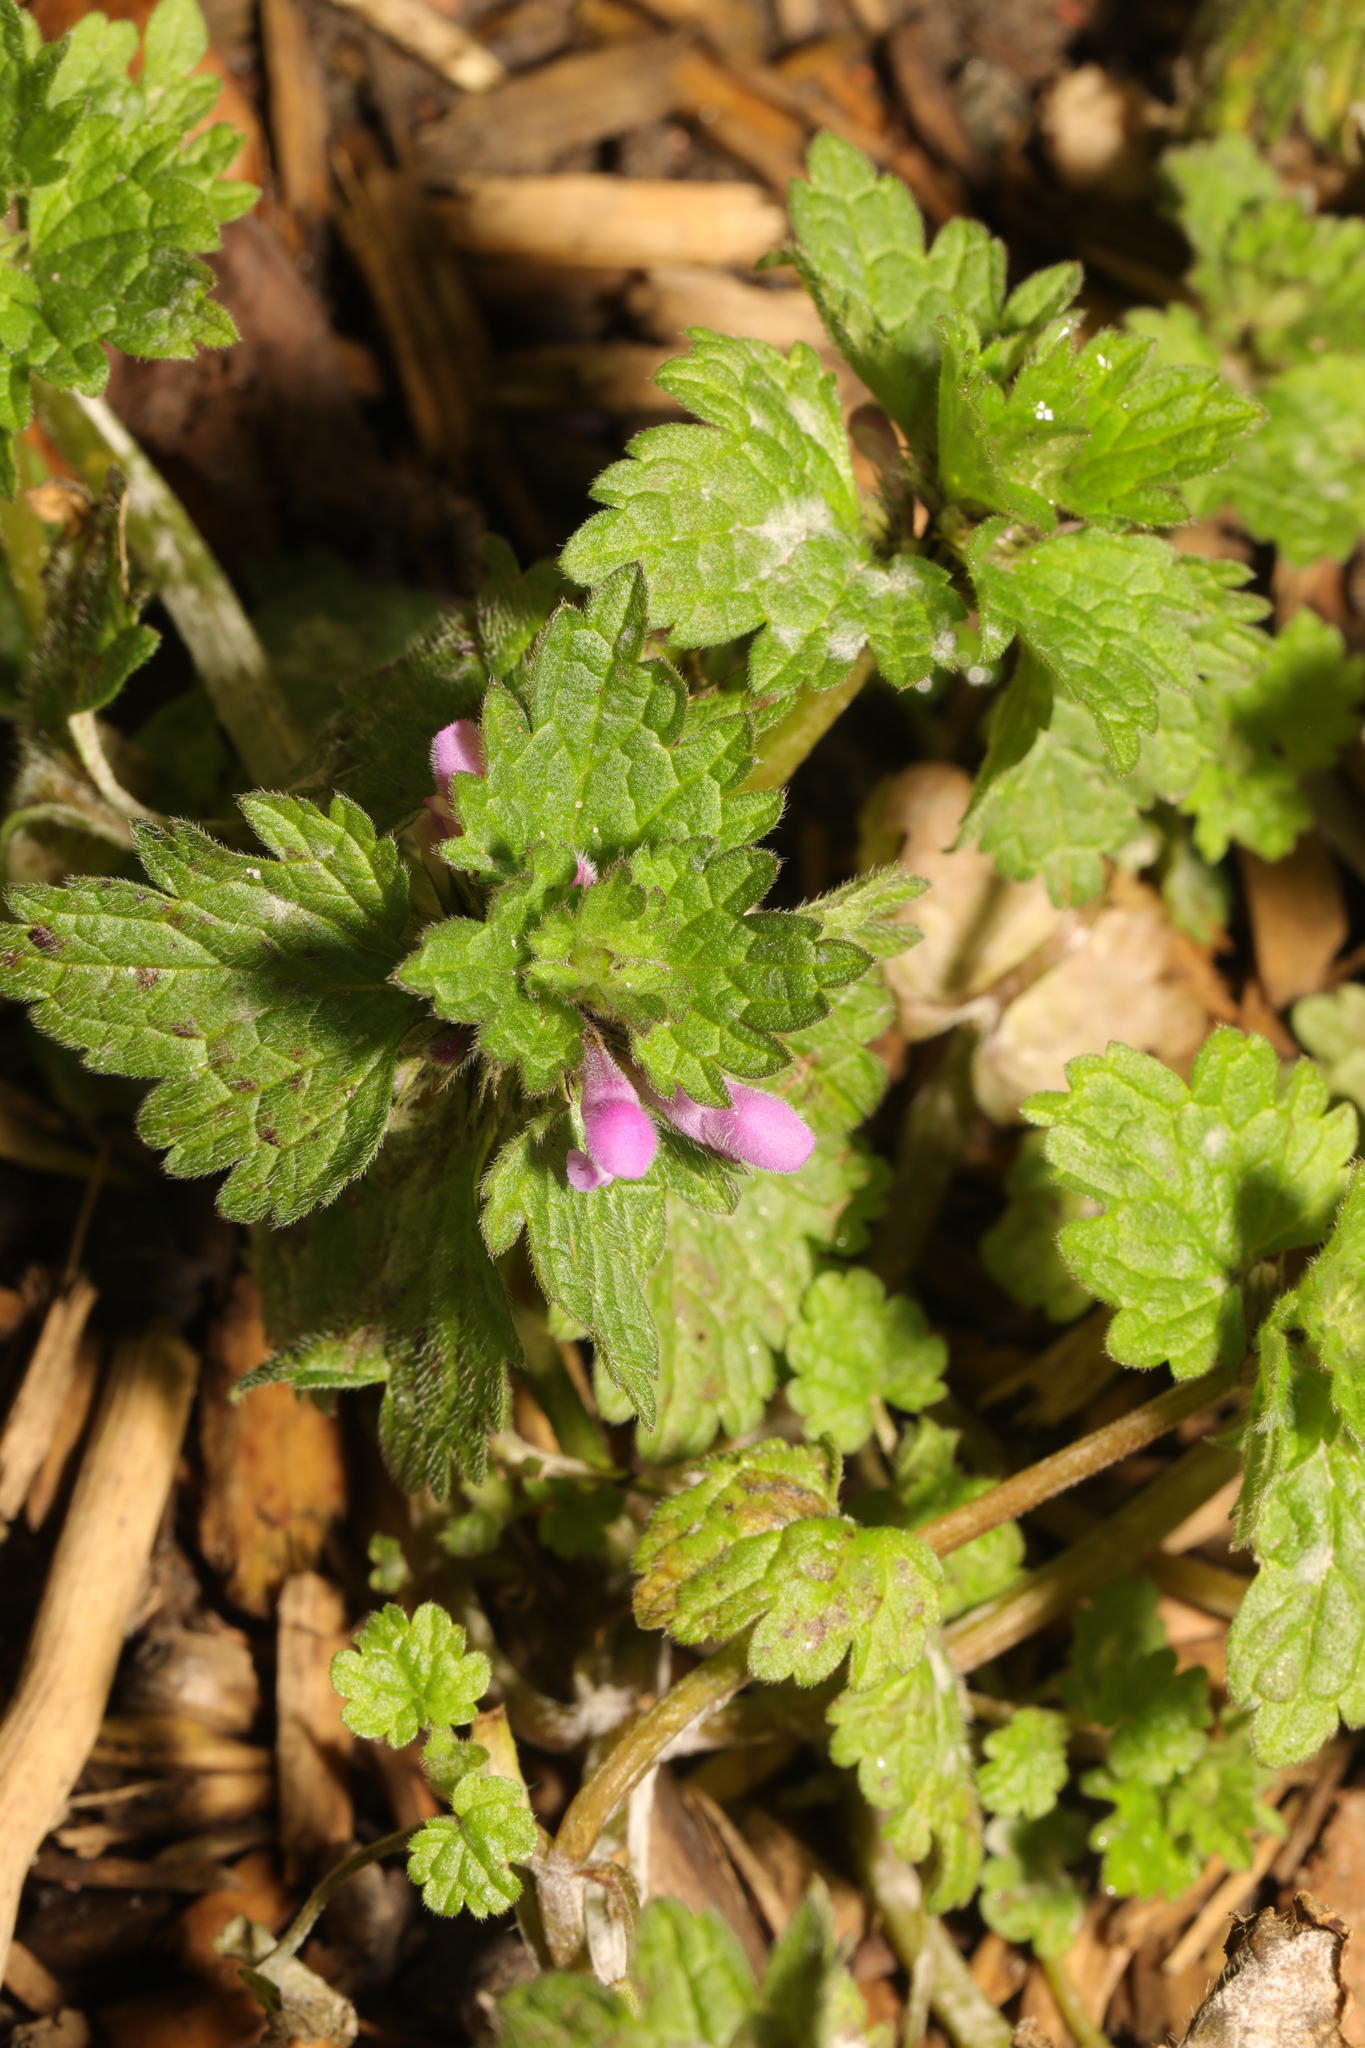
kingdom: Plantae
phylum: Tracheophyta
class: Magnoliopsida
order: Lamiales
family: Lamiaceae
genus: Lamium
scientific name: Lamium purpureum
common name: Red dead-nettle
